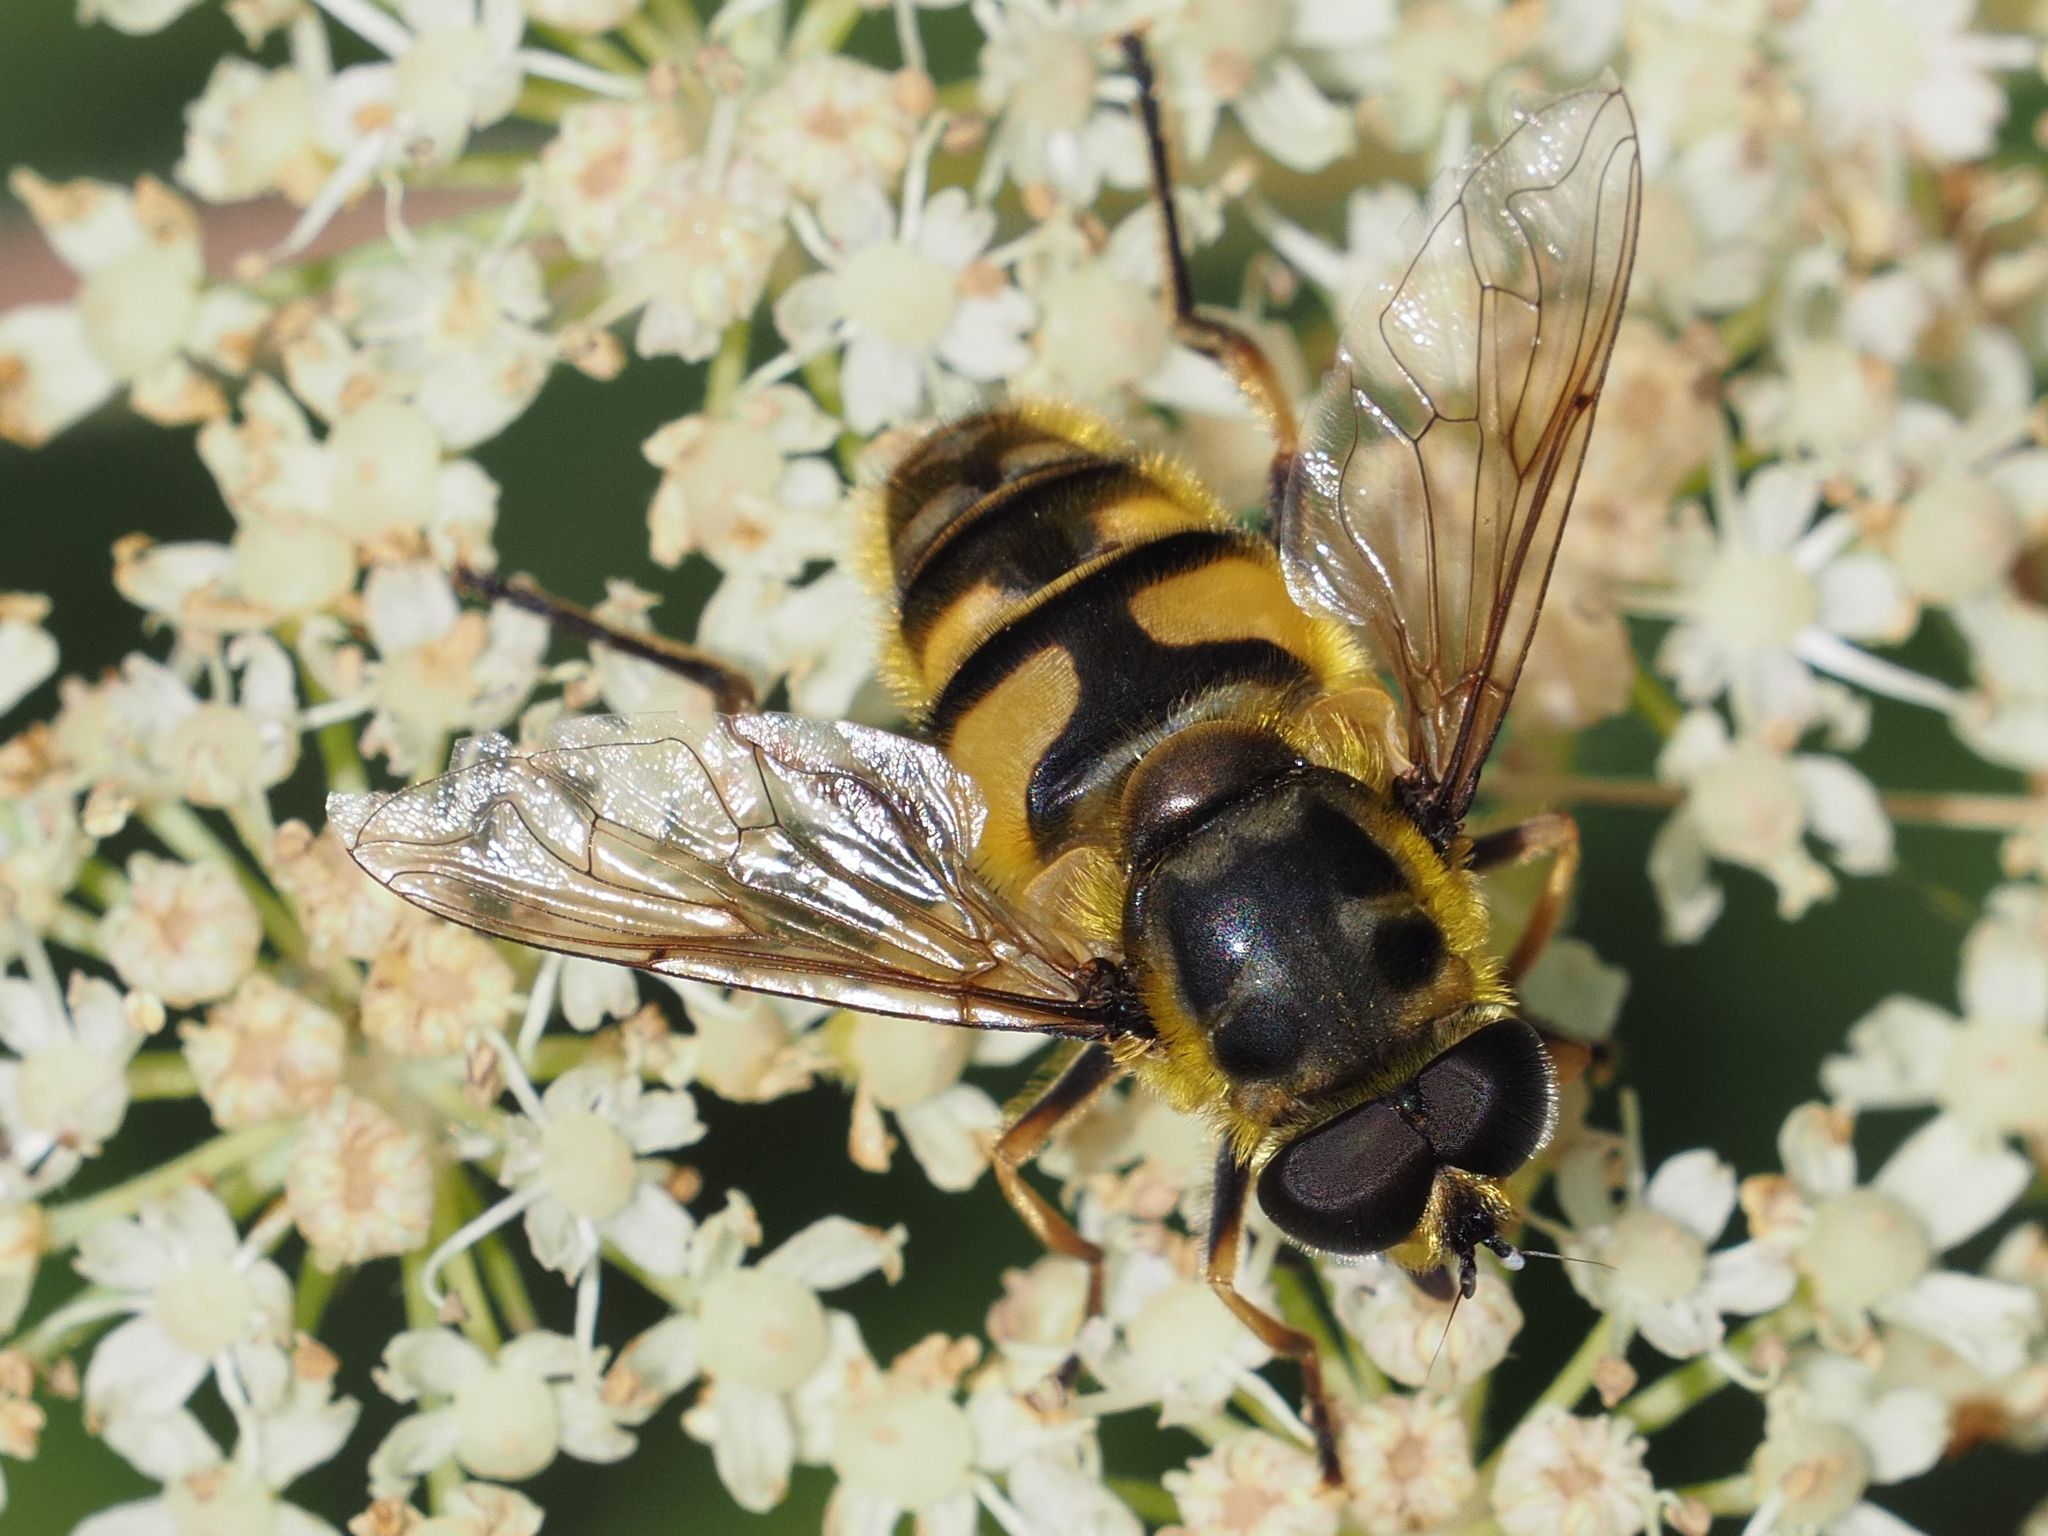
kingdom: Animalia
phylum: Arthropoda
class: Insecta
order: Diptera
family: Syrphidae
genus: Myathropa
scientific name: Myathropa florea
